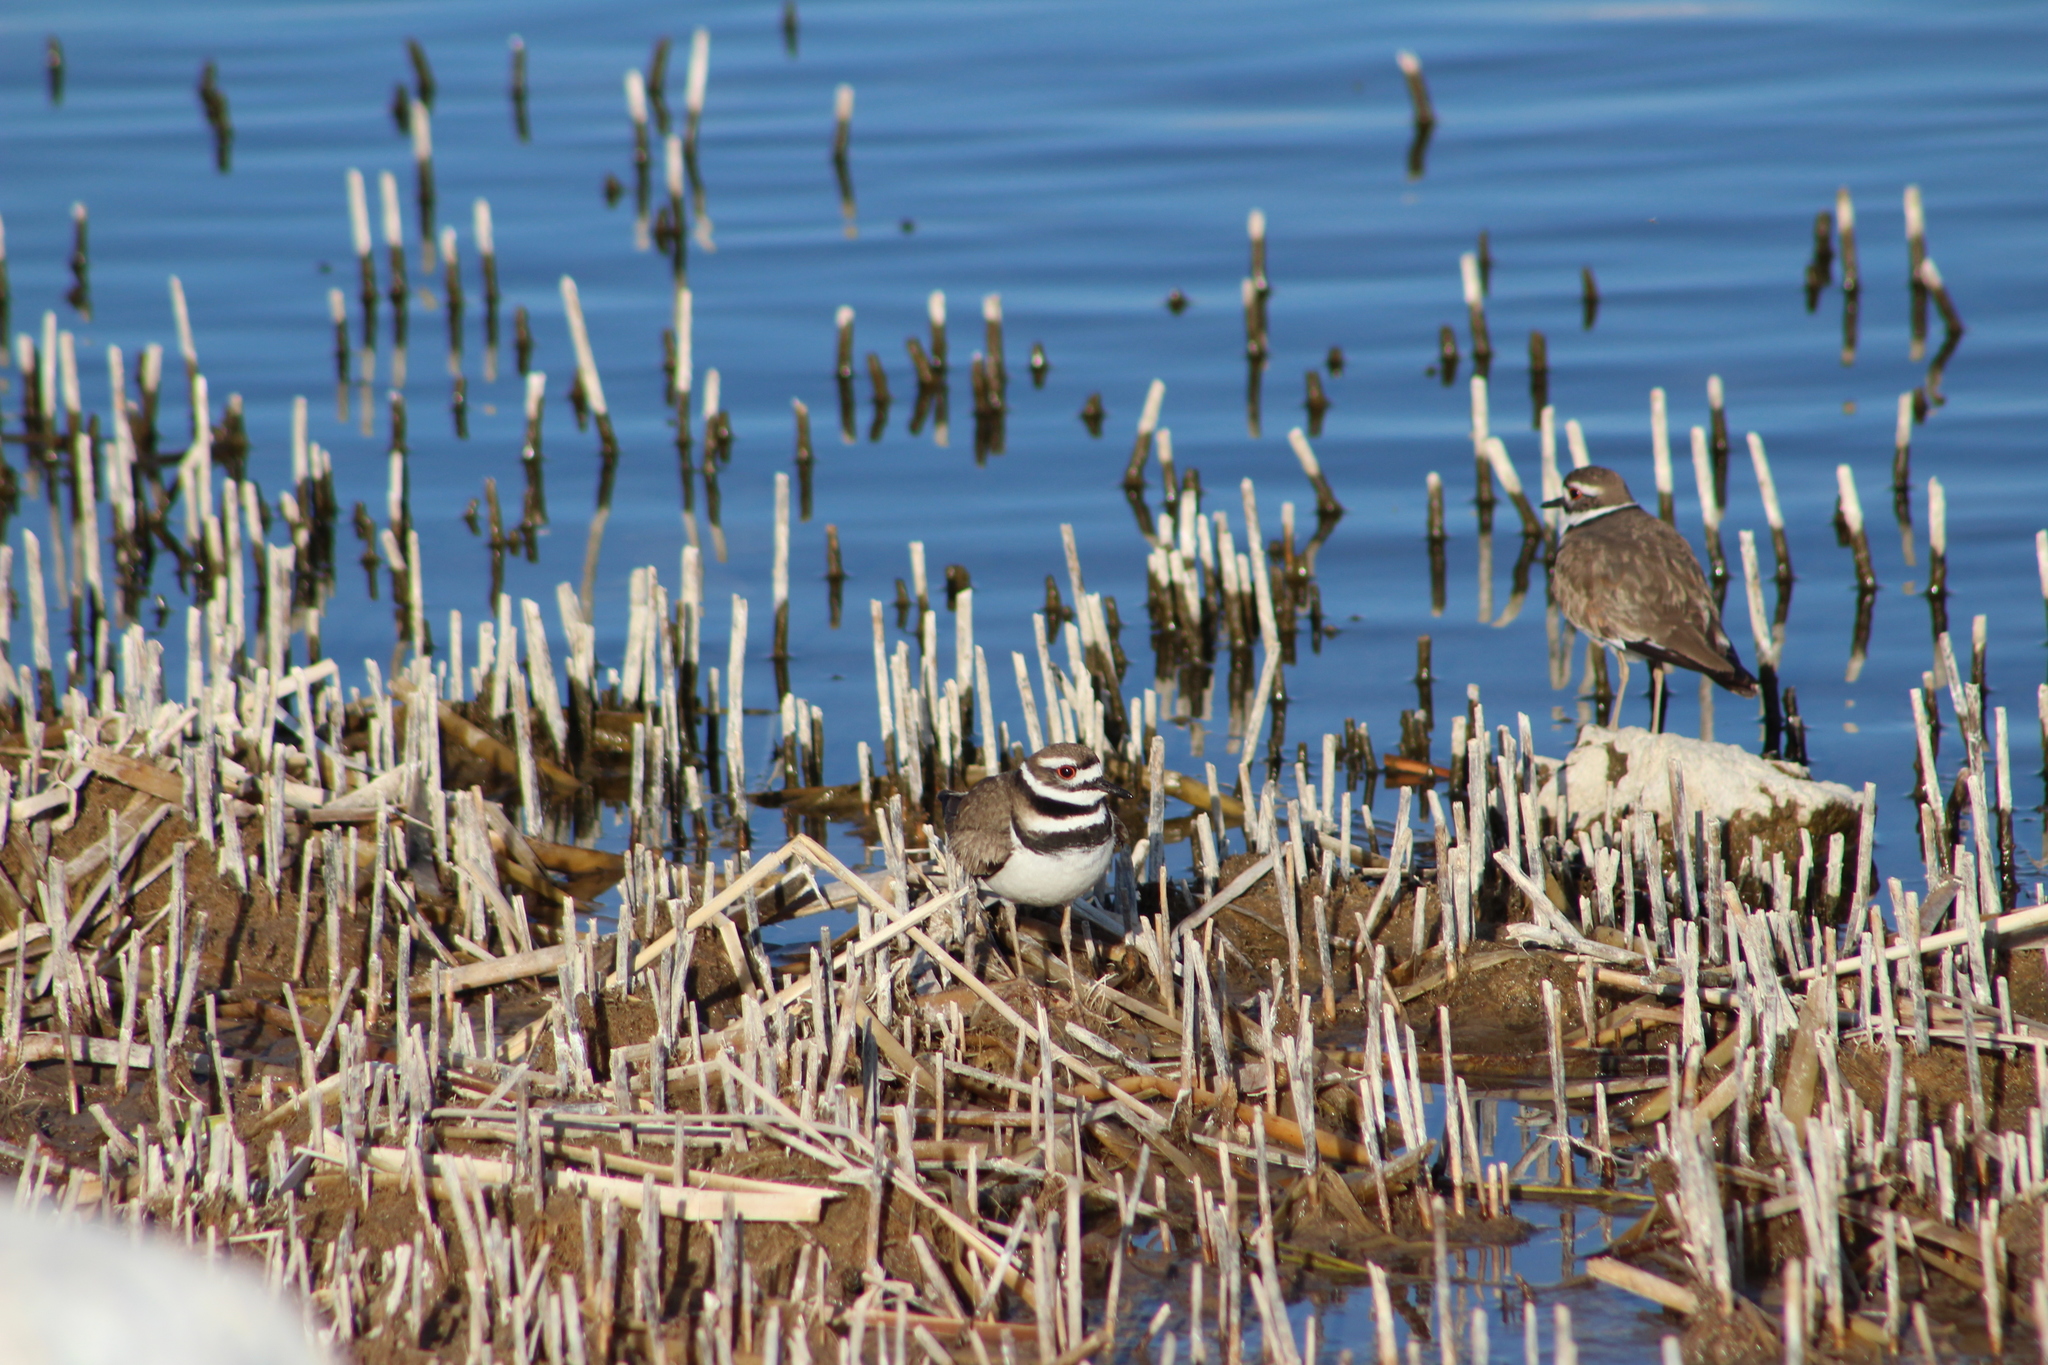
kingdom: Animalia
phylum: Chordata
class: Aves
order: Charadriiformes
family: Charadriidae
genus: Charadrius
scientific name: Charadrius vociferus
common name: Killdeer
